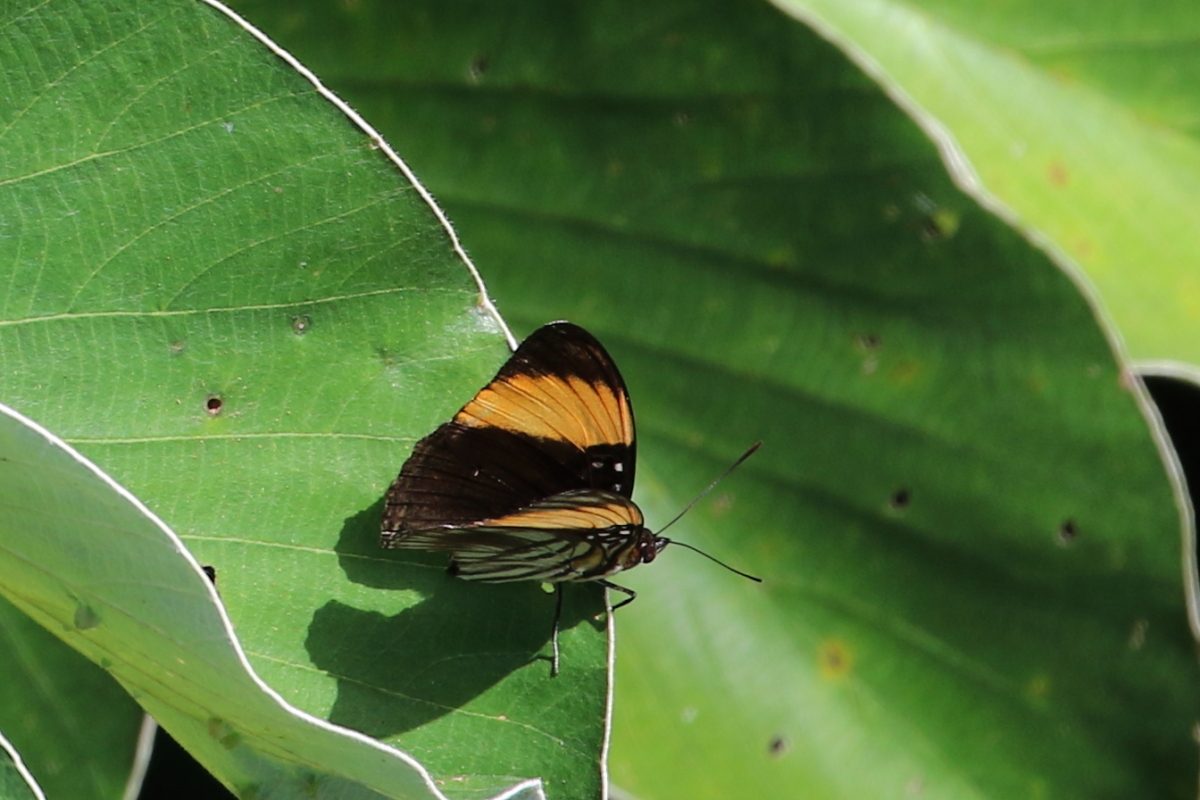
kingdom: Animalia
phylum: Arthropoda
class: Insecta
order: Lepidoptera
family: Nymphalidae
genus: Limenitis
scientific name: Limenitis melanthe
